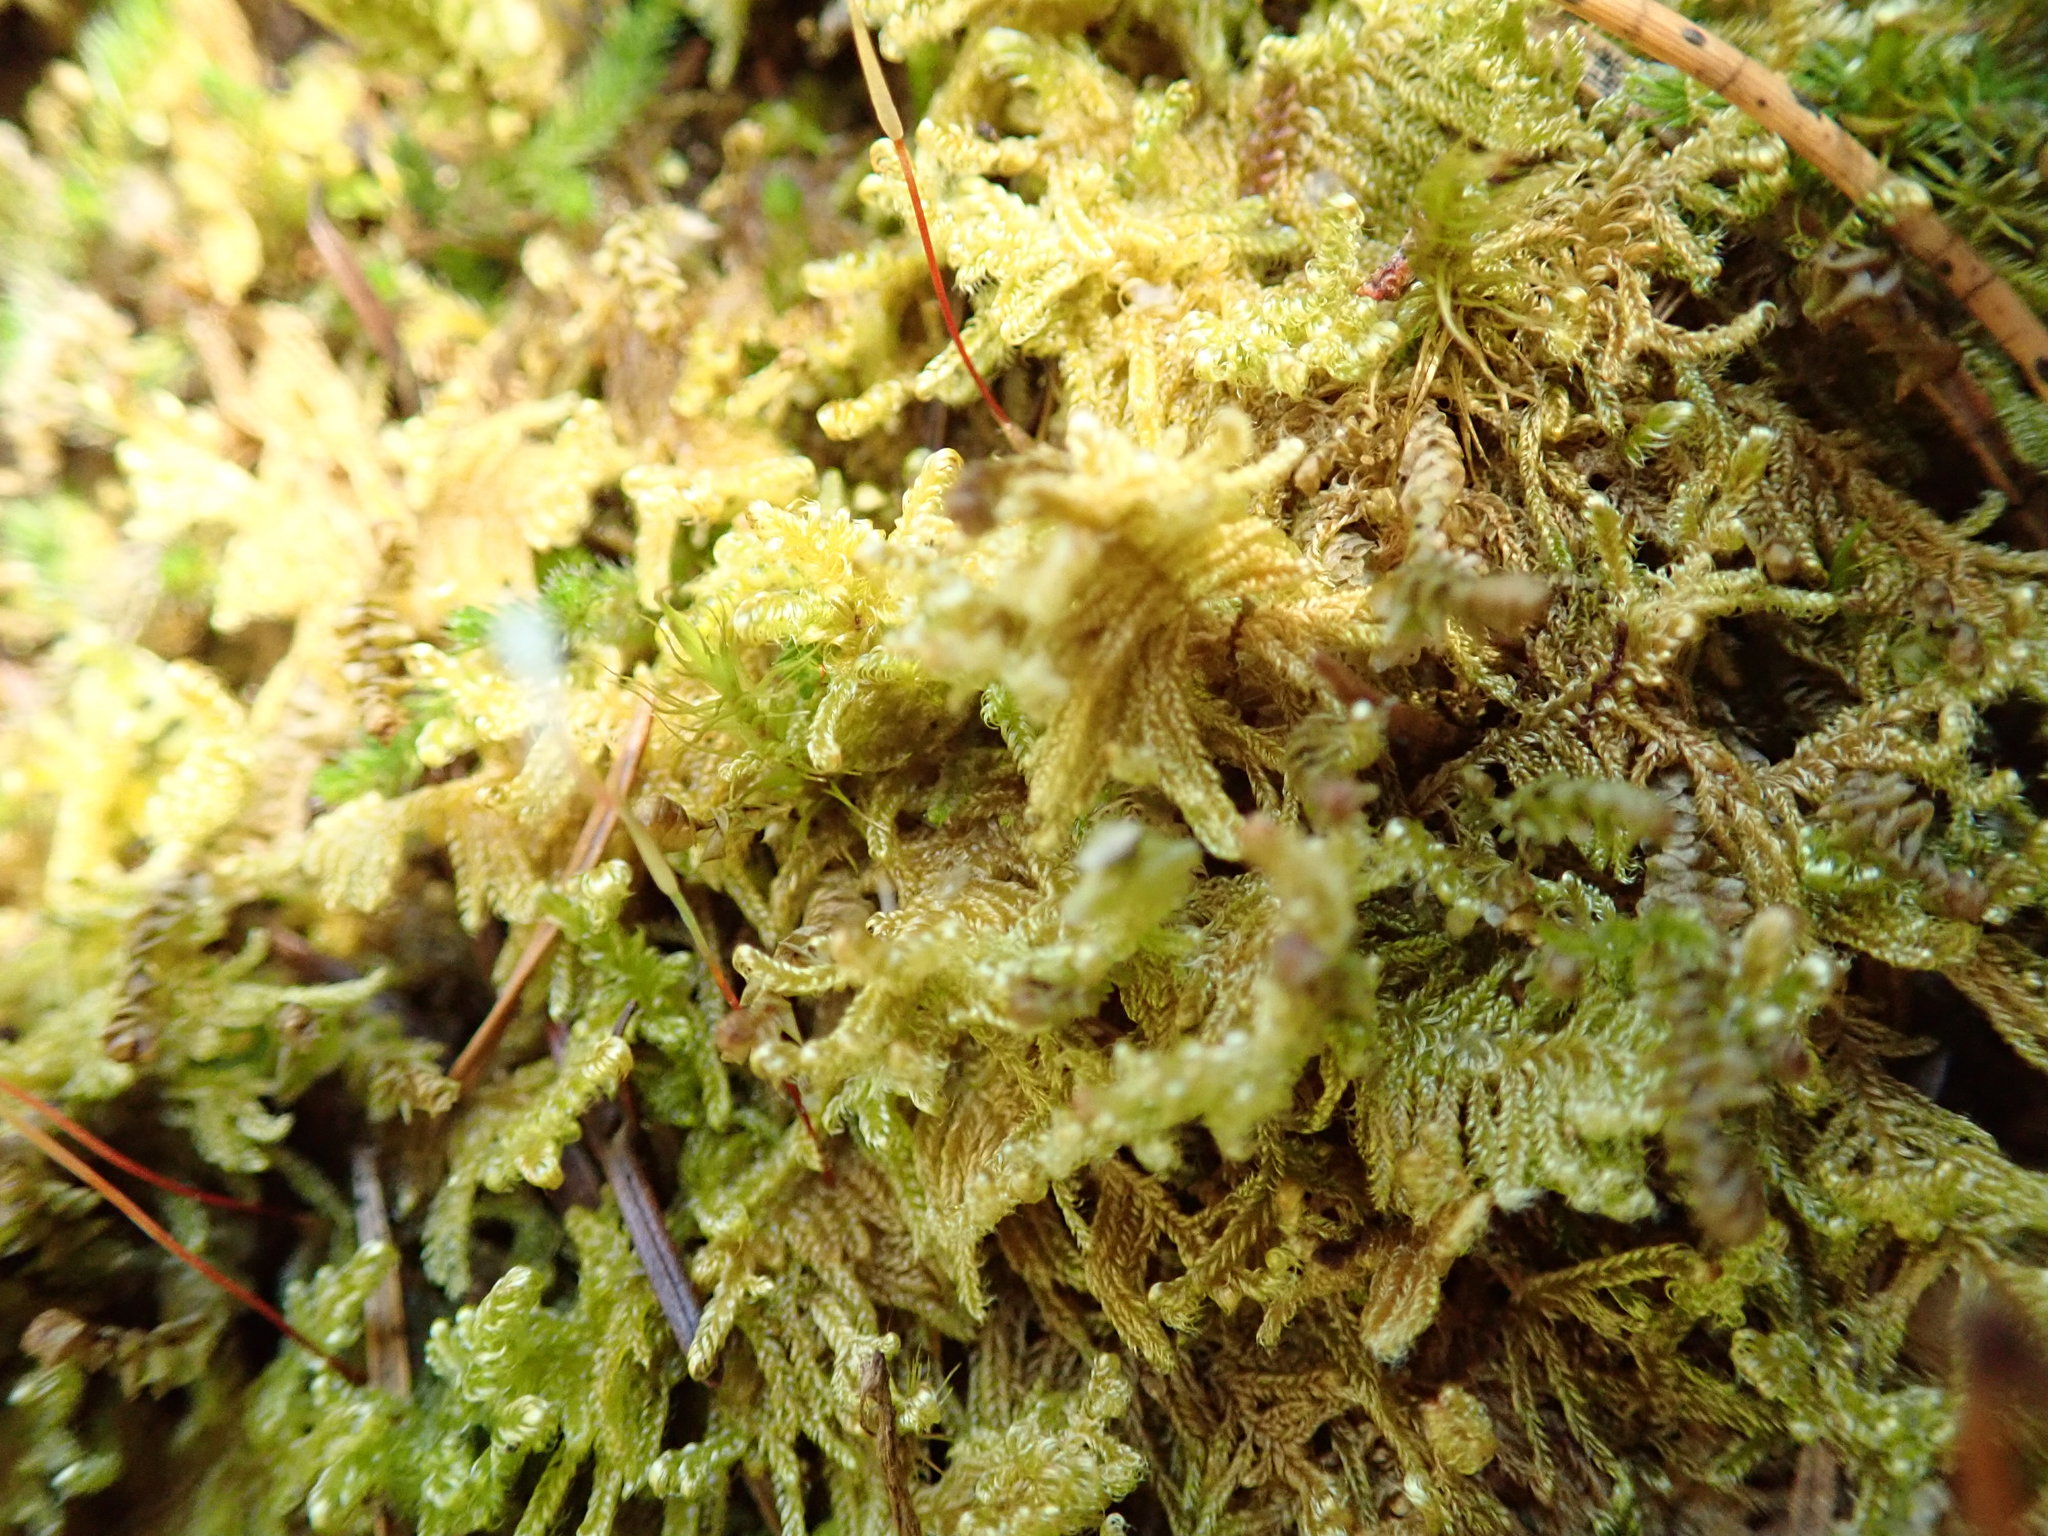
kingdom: Plantae
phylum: Bryophyta
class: Bryopsida
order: Hypnales
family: Stereodontaceae
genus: Stereodon
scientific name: Stereodon subimponens
